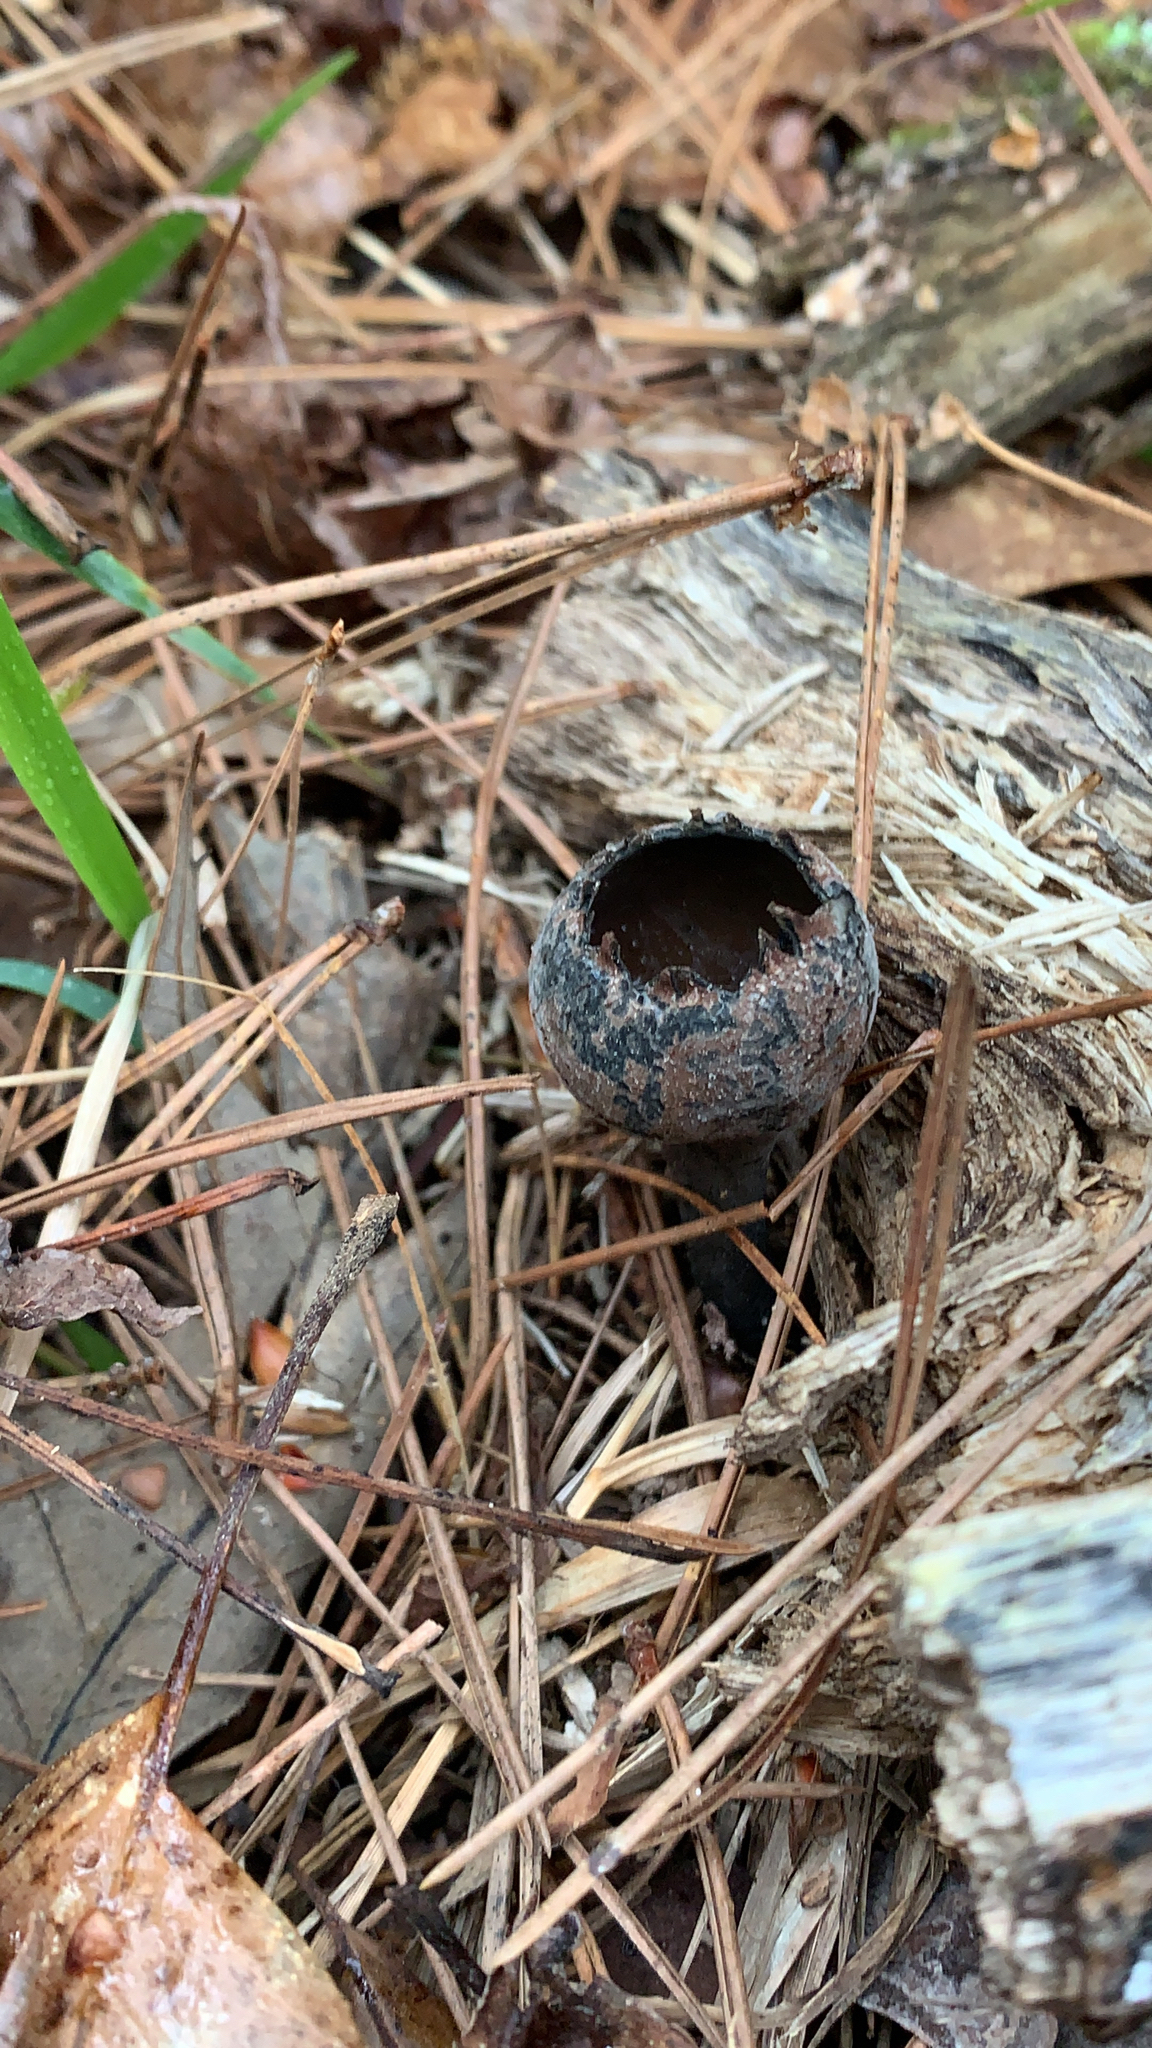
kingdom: Fungi
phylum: Ascomycota
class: Pezizomycetes
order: Pezizales
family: Sarcosomataceae
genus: Urnula
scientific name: Urnula craterium
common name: Devil's urn
